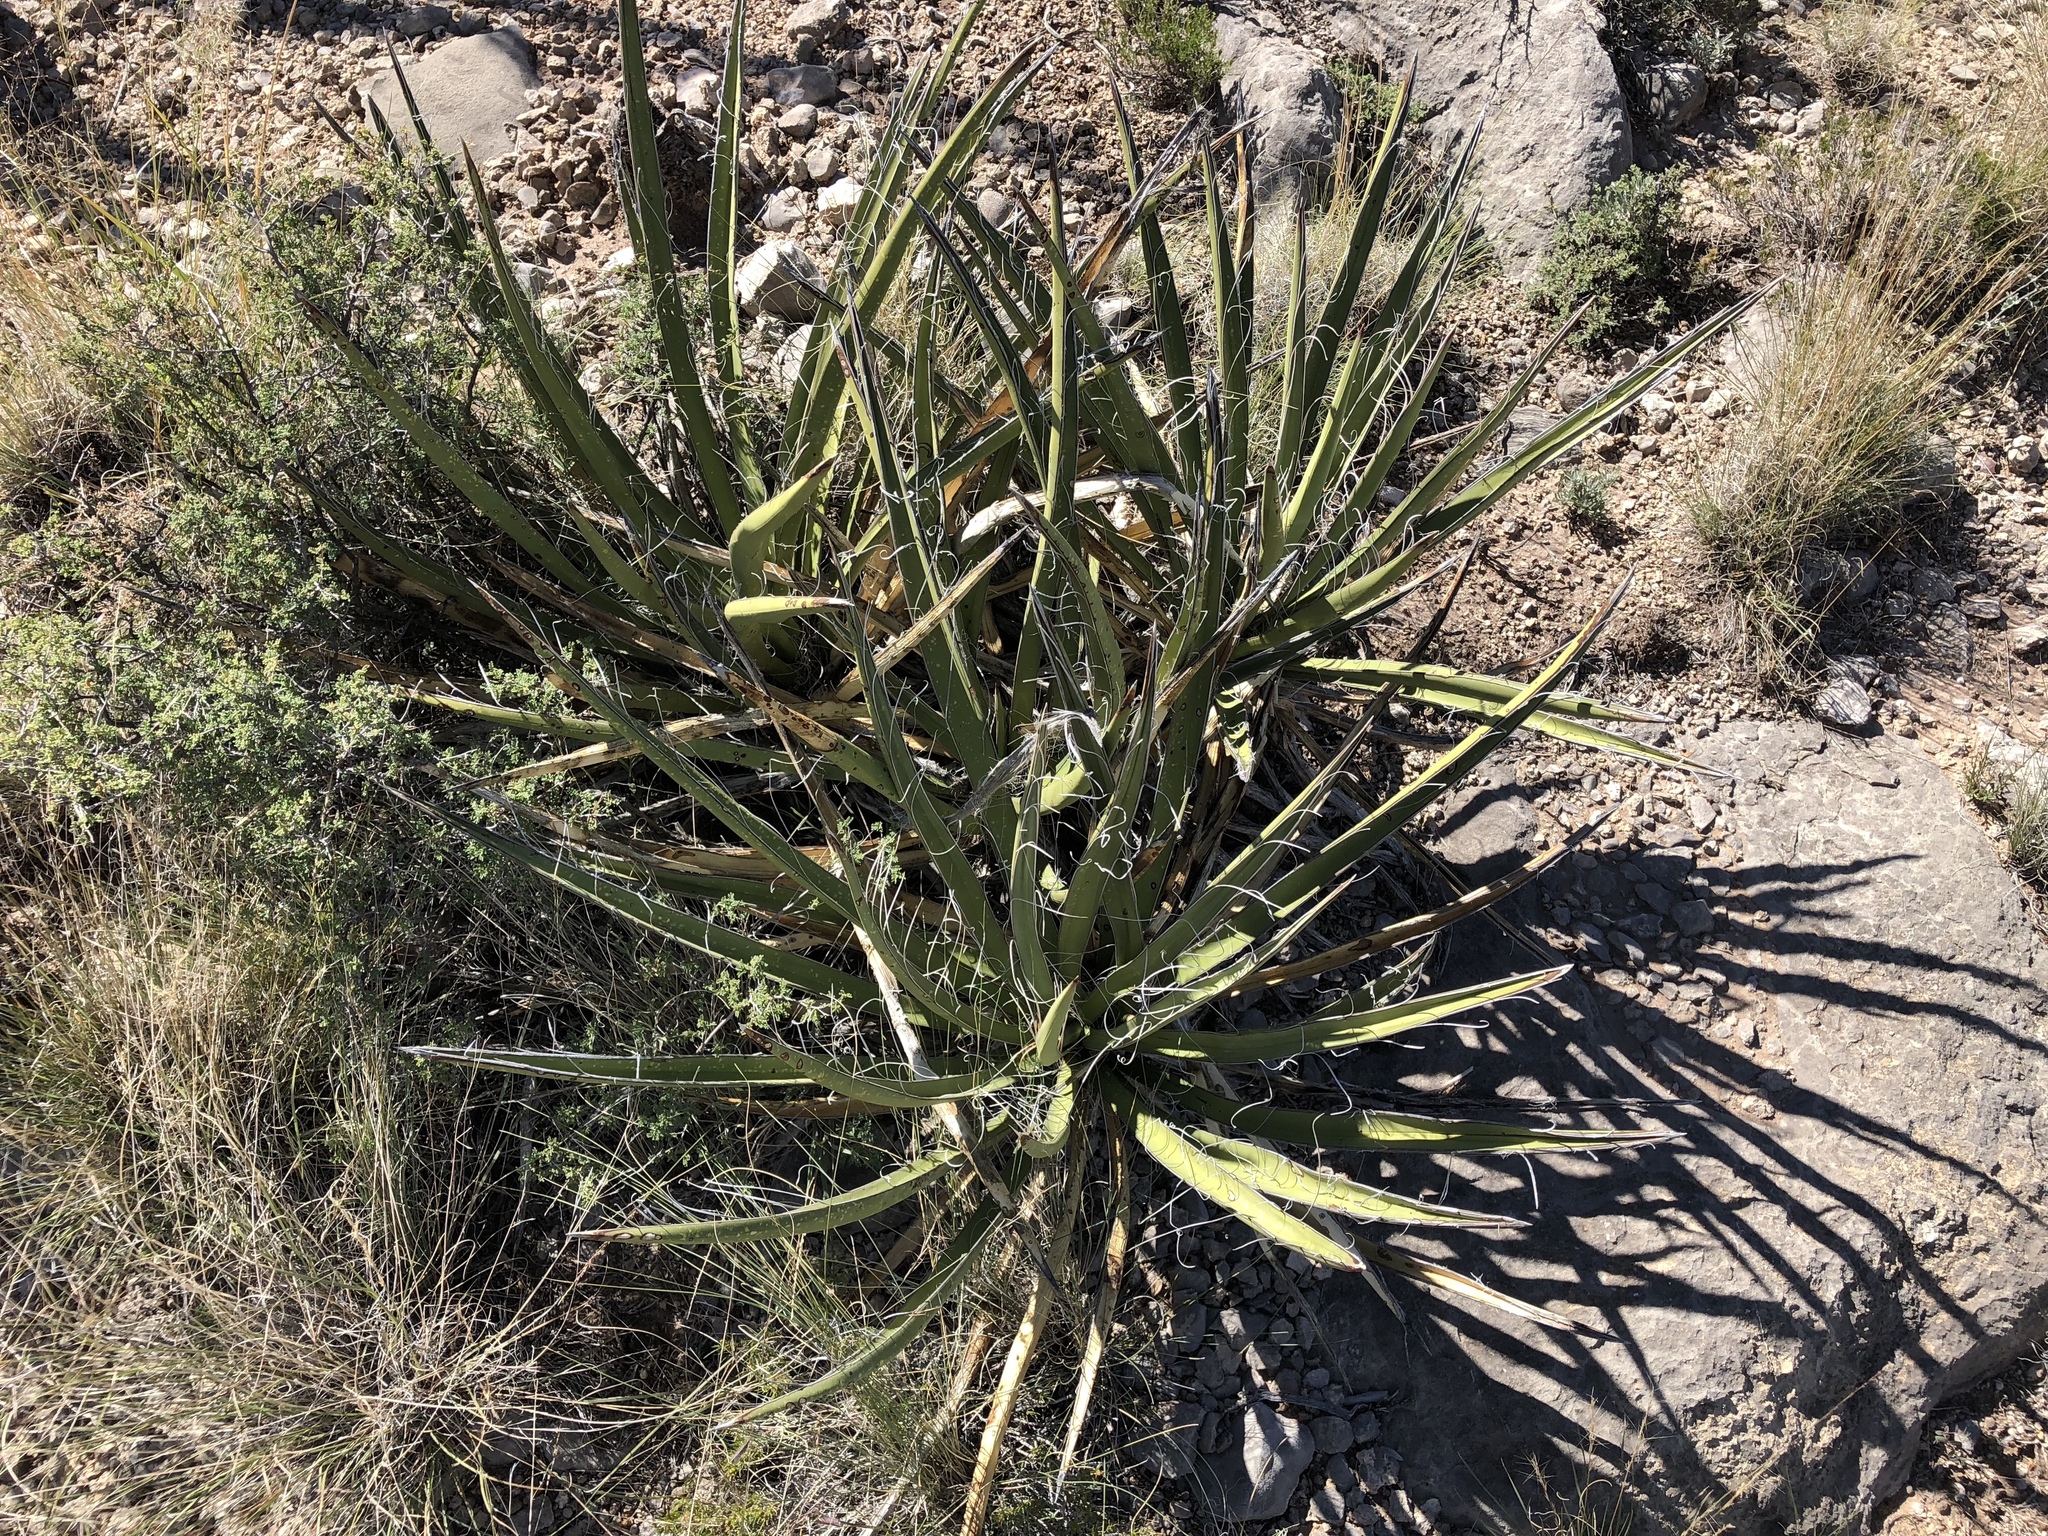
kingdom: Plantae
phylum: Tracheophyta
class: Liliopsida
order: Asparagales
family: Asparagaceae
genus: Yucca
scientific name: Yucca baccata
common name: Banana yucca
